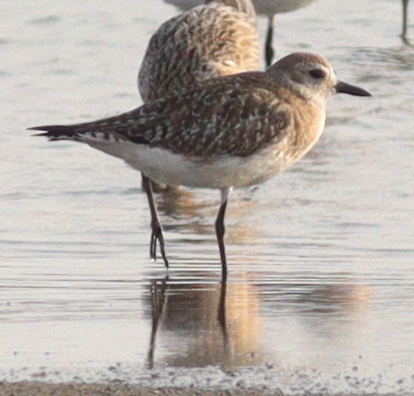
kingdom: Animalia
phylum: Chordata
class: Aves
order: Charadriiformes
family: Charadriidae
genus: Pluvialis
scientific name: Pluvialis squatarola
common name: Grey plover
